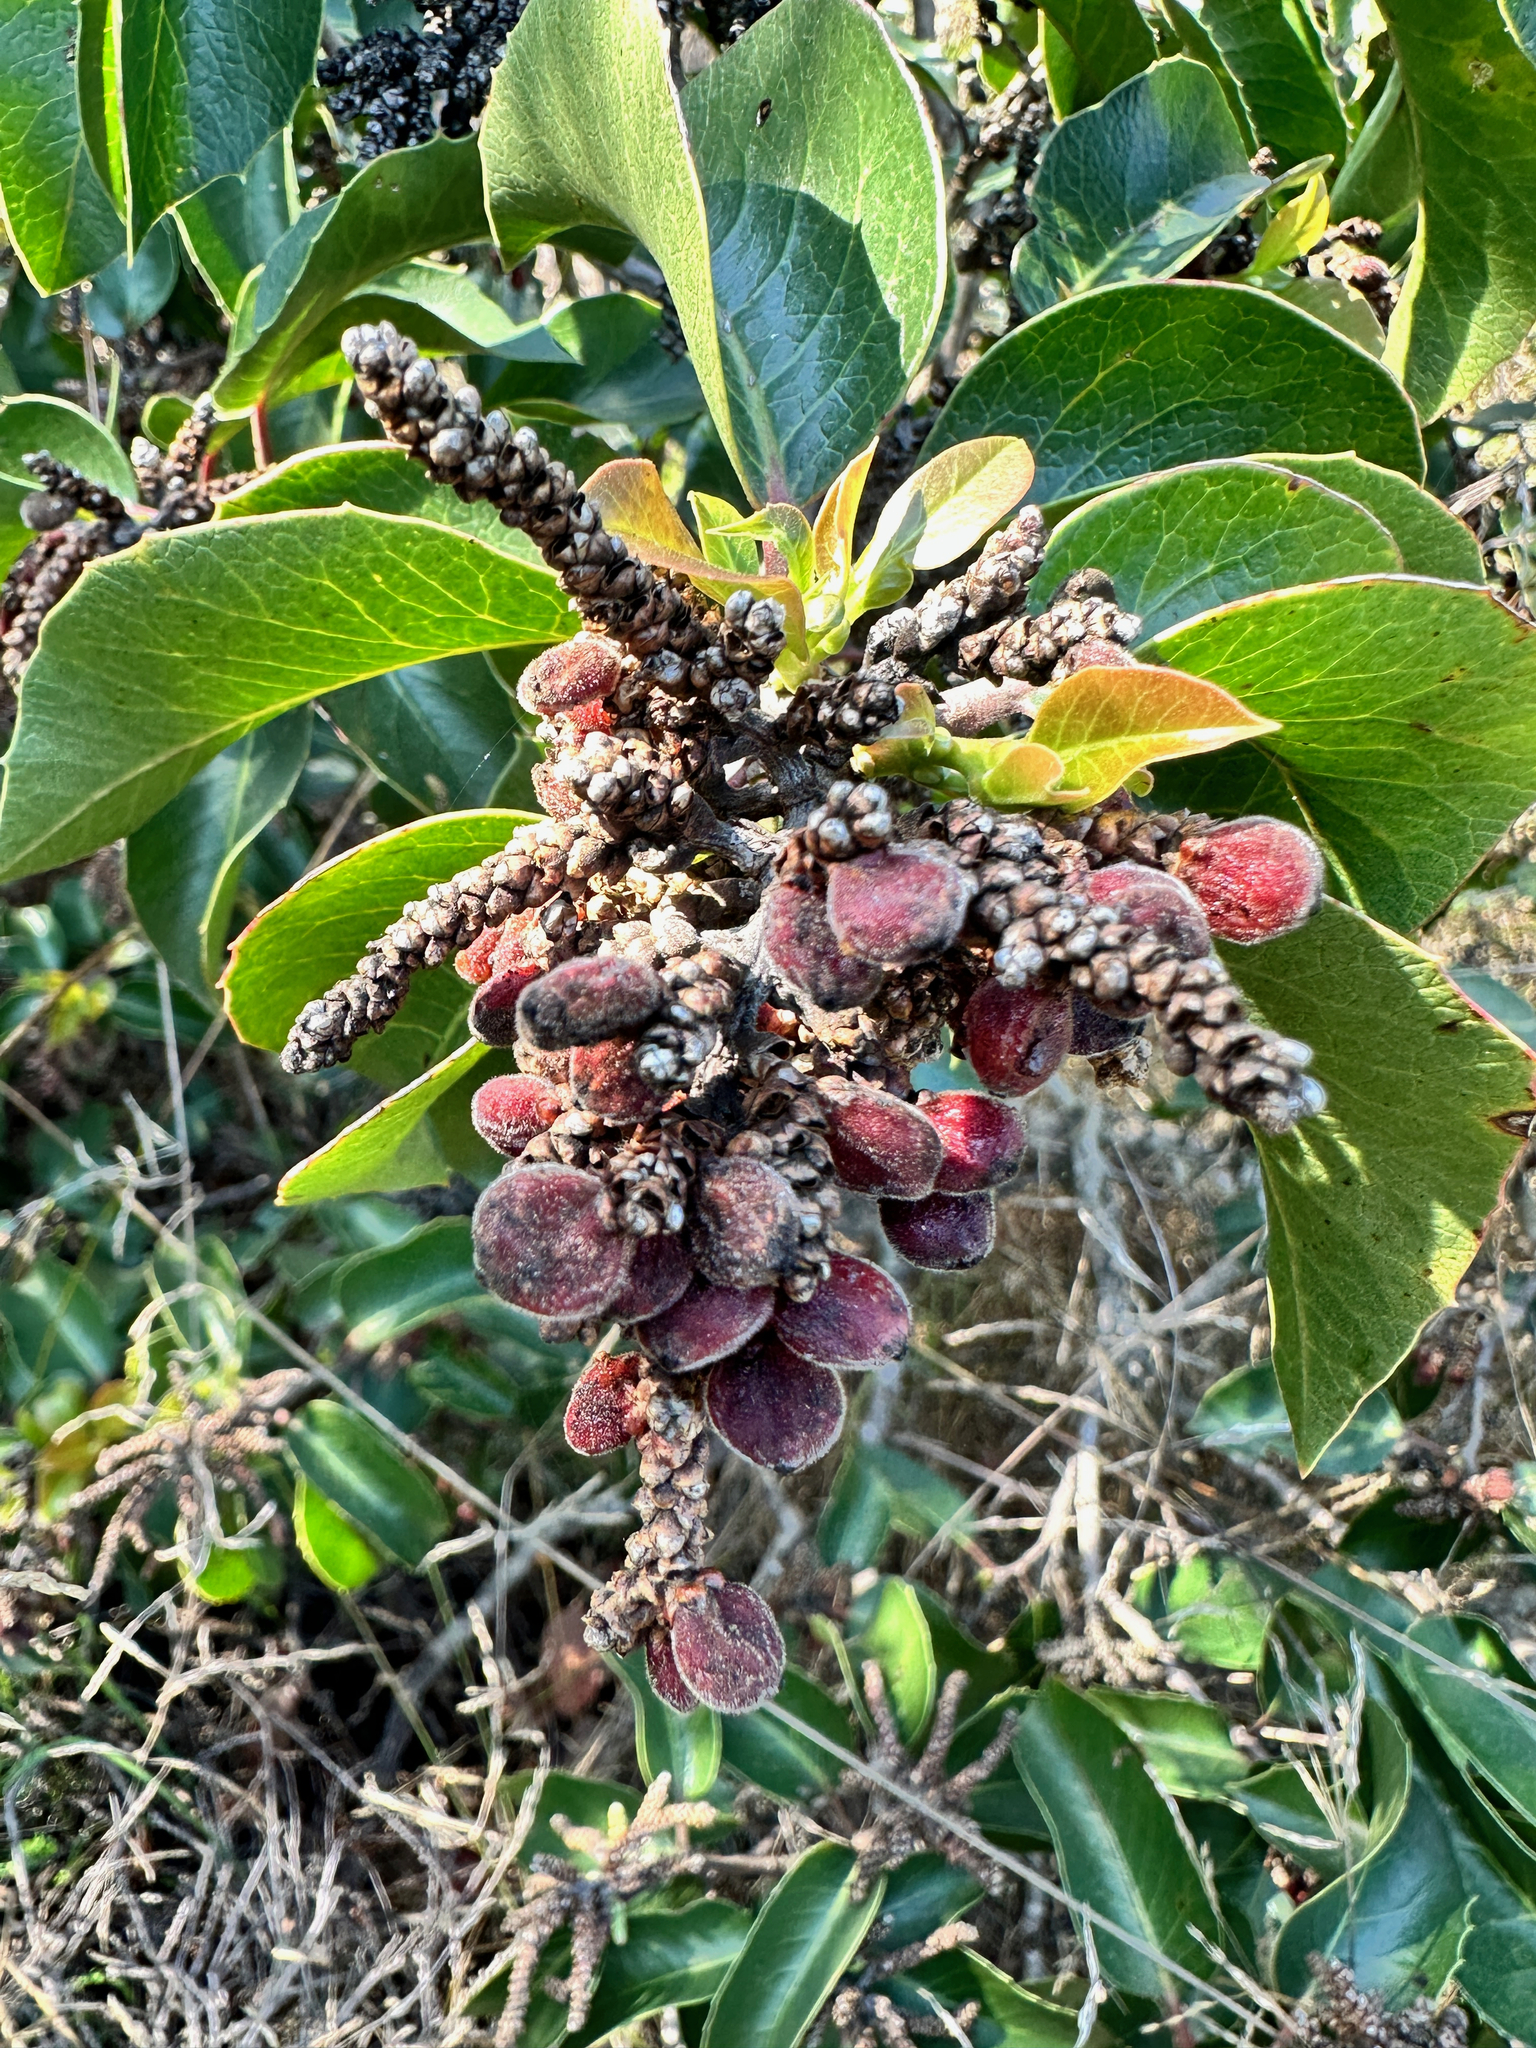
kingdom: Plantae
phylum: Tracheophyta
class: Magnoliopsida
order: Sapindales
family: Anacardiaceae
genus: Rhus
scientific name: Rhus ovata
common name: Sugar sumac
